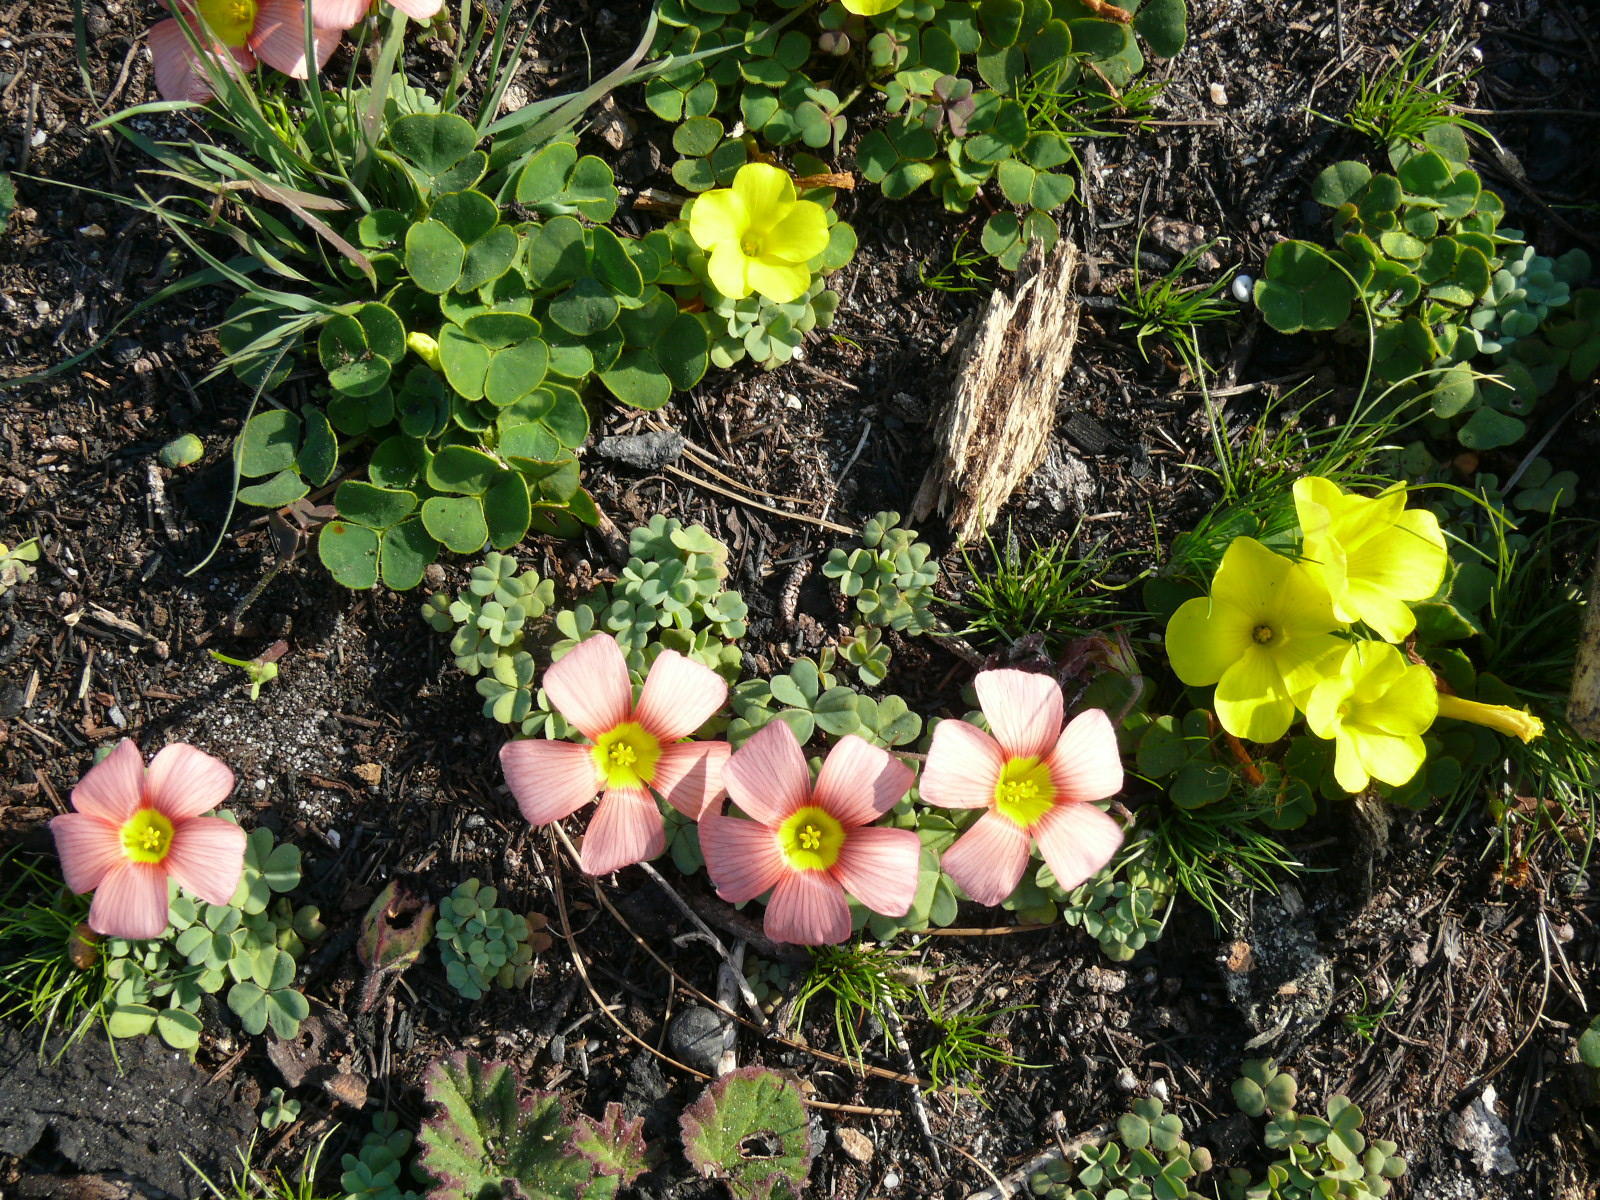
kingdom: Plantae
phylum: Tracheophyta
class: Magnoliopsida
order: Oxalidales
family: Oxalidaceae
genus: Oxalis
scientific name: Oxalis obtusa
